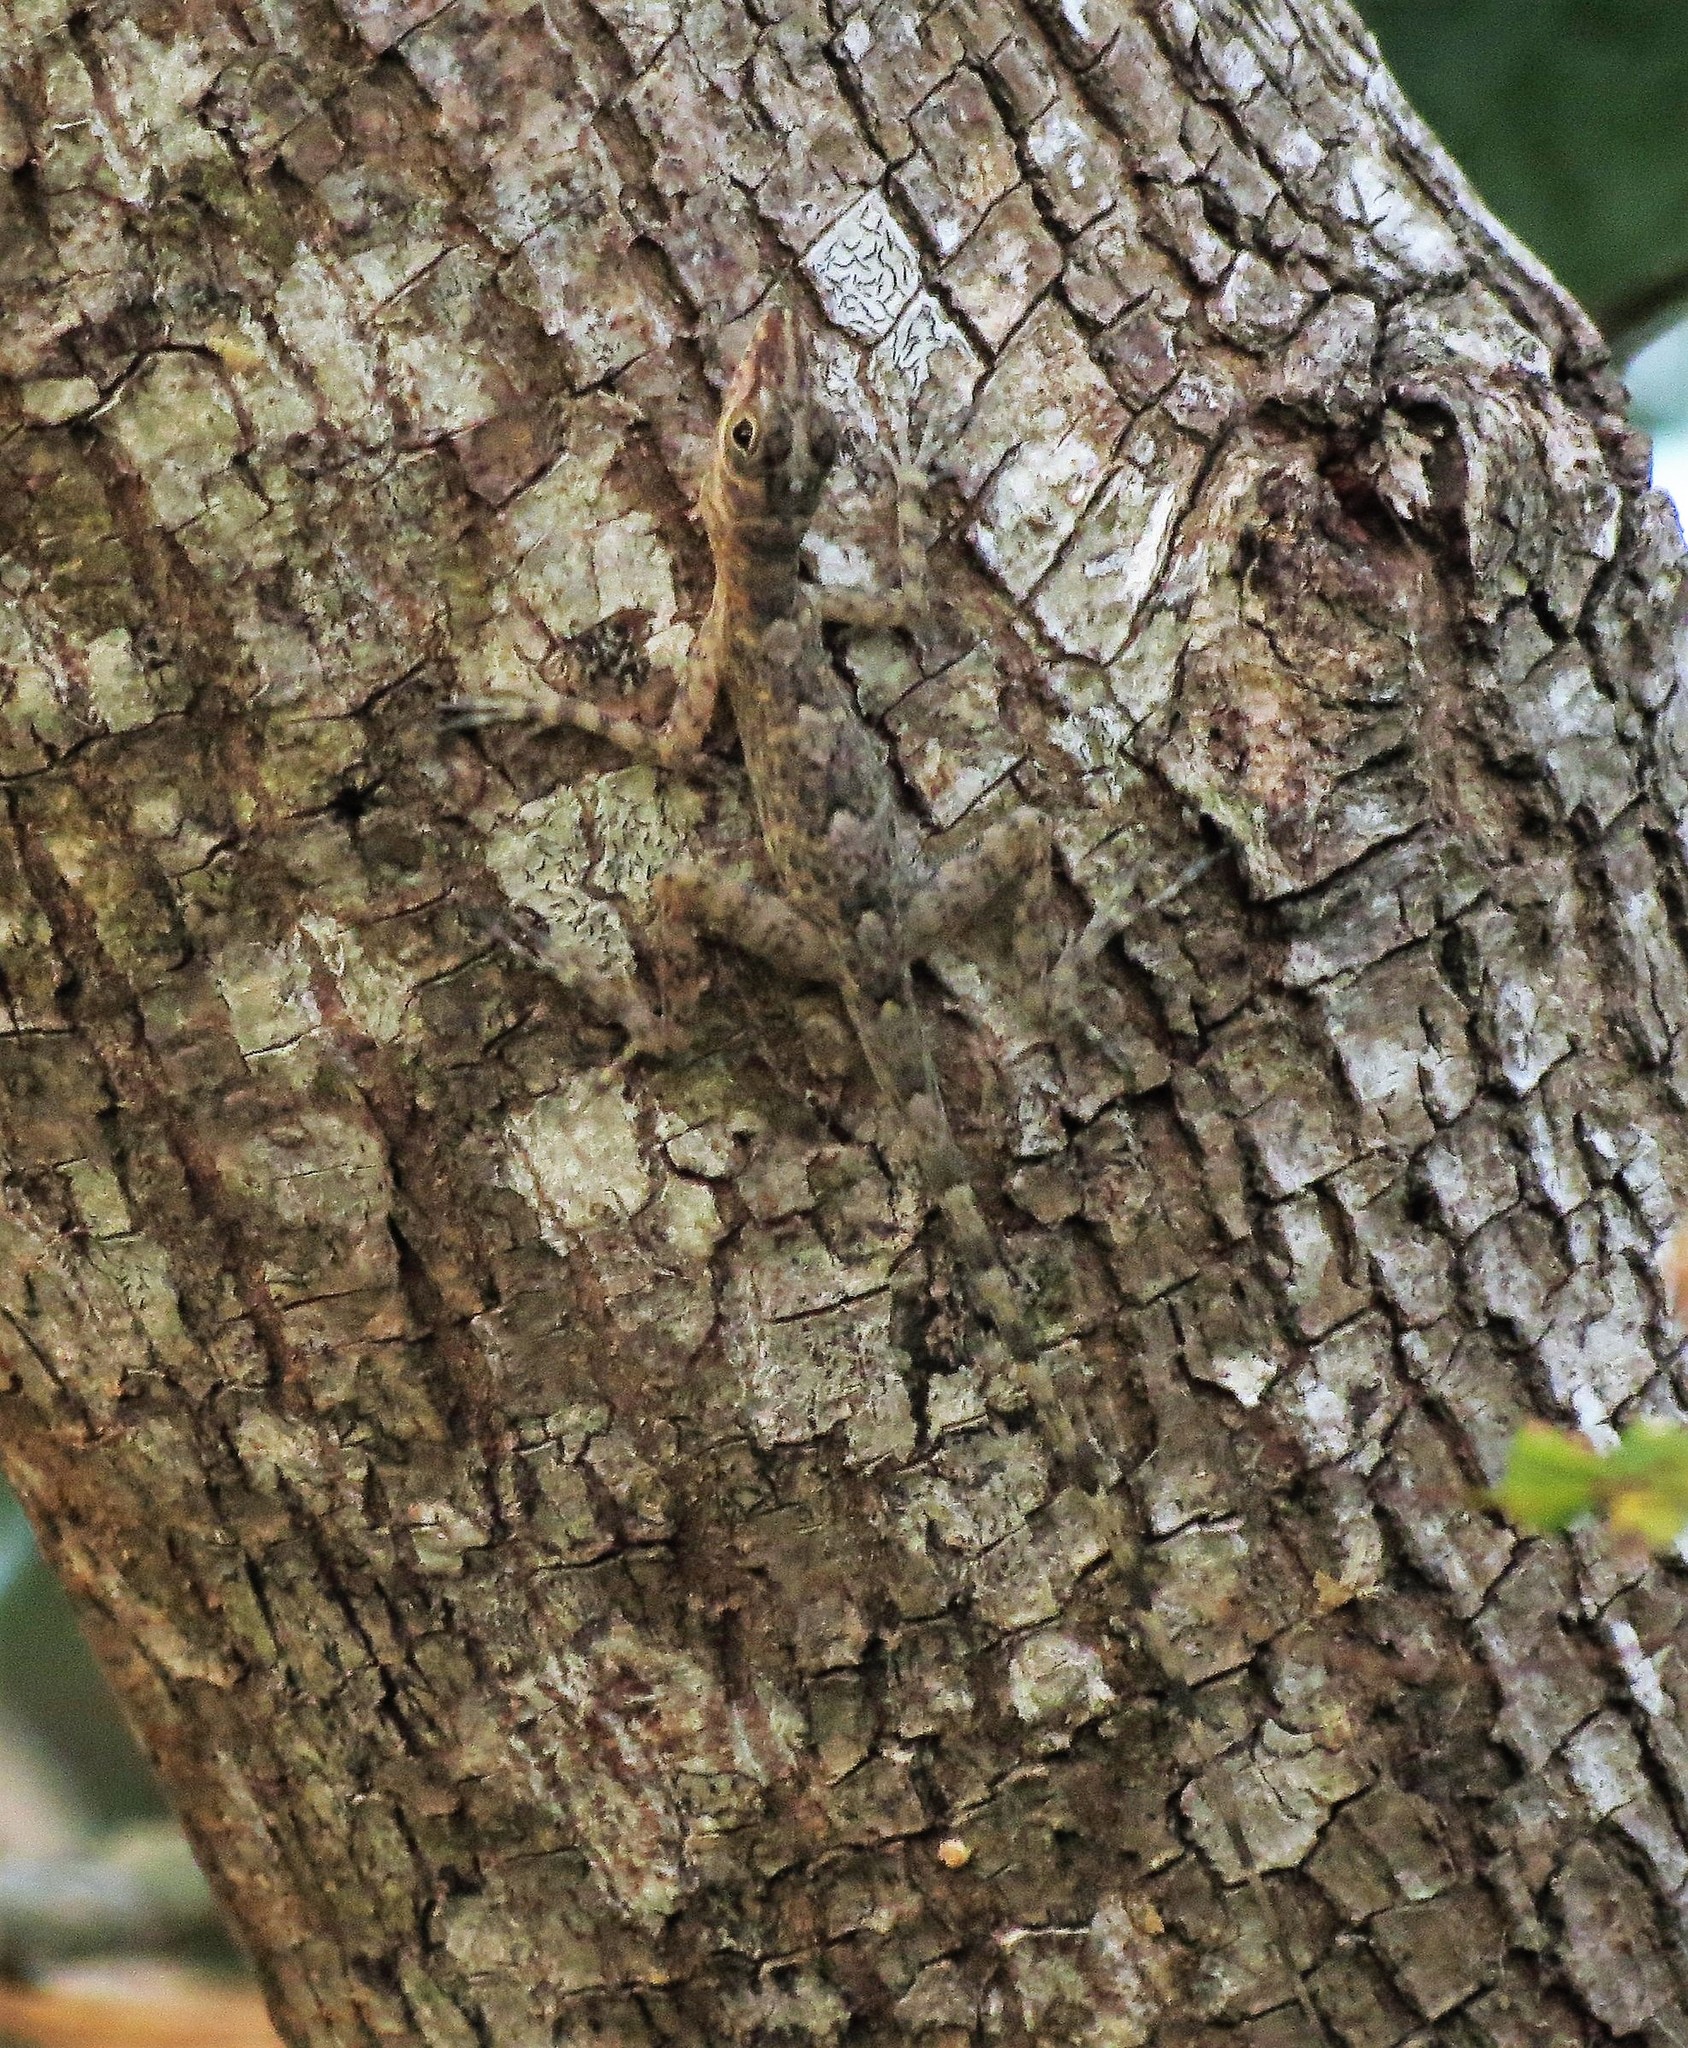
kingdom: Animalia
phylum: Chordata
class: Squamata
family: Dactyloidae
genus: Anolis
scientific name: Anolis argenteolus
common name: Guantanamo anole
